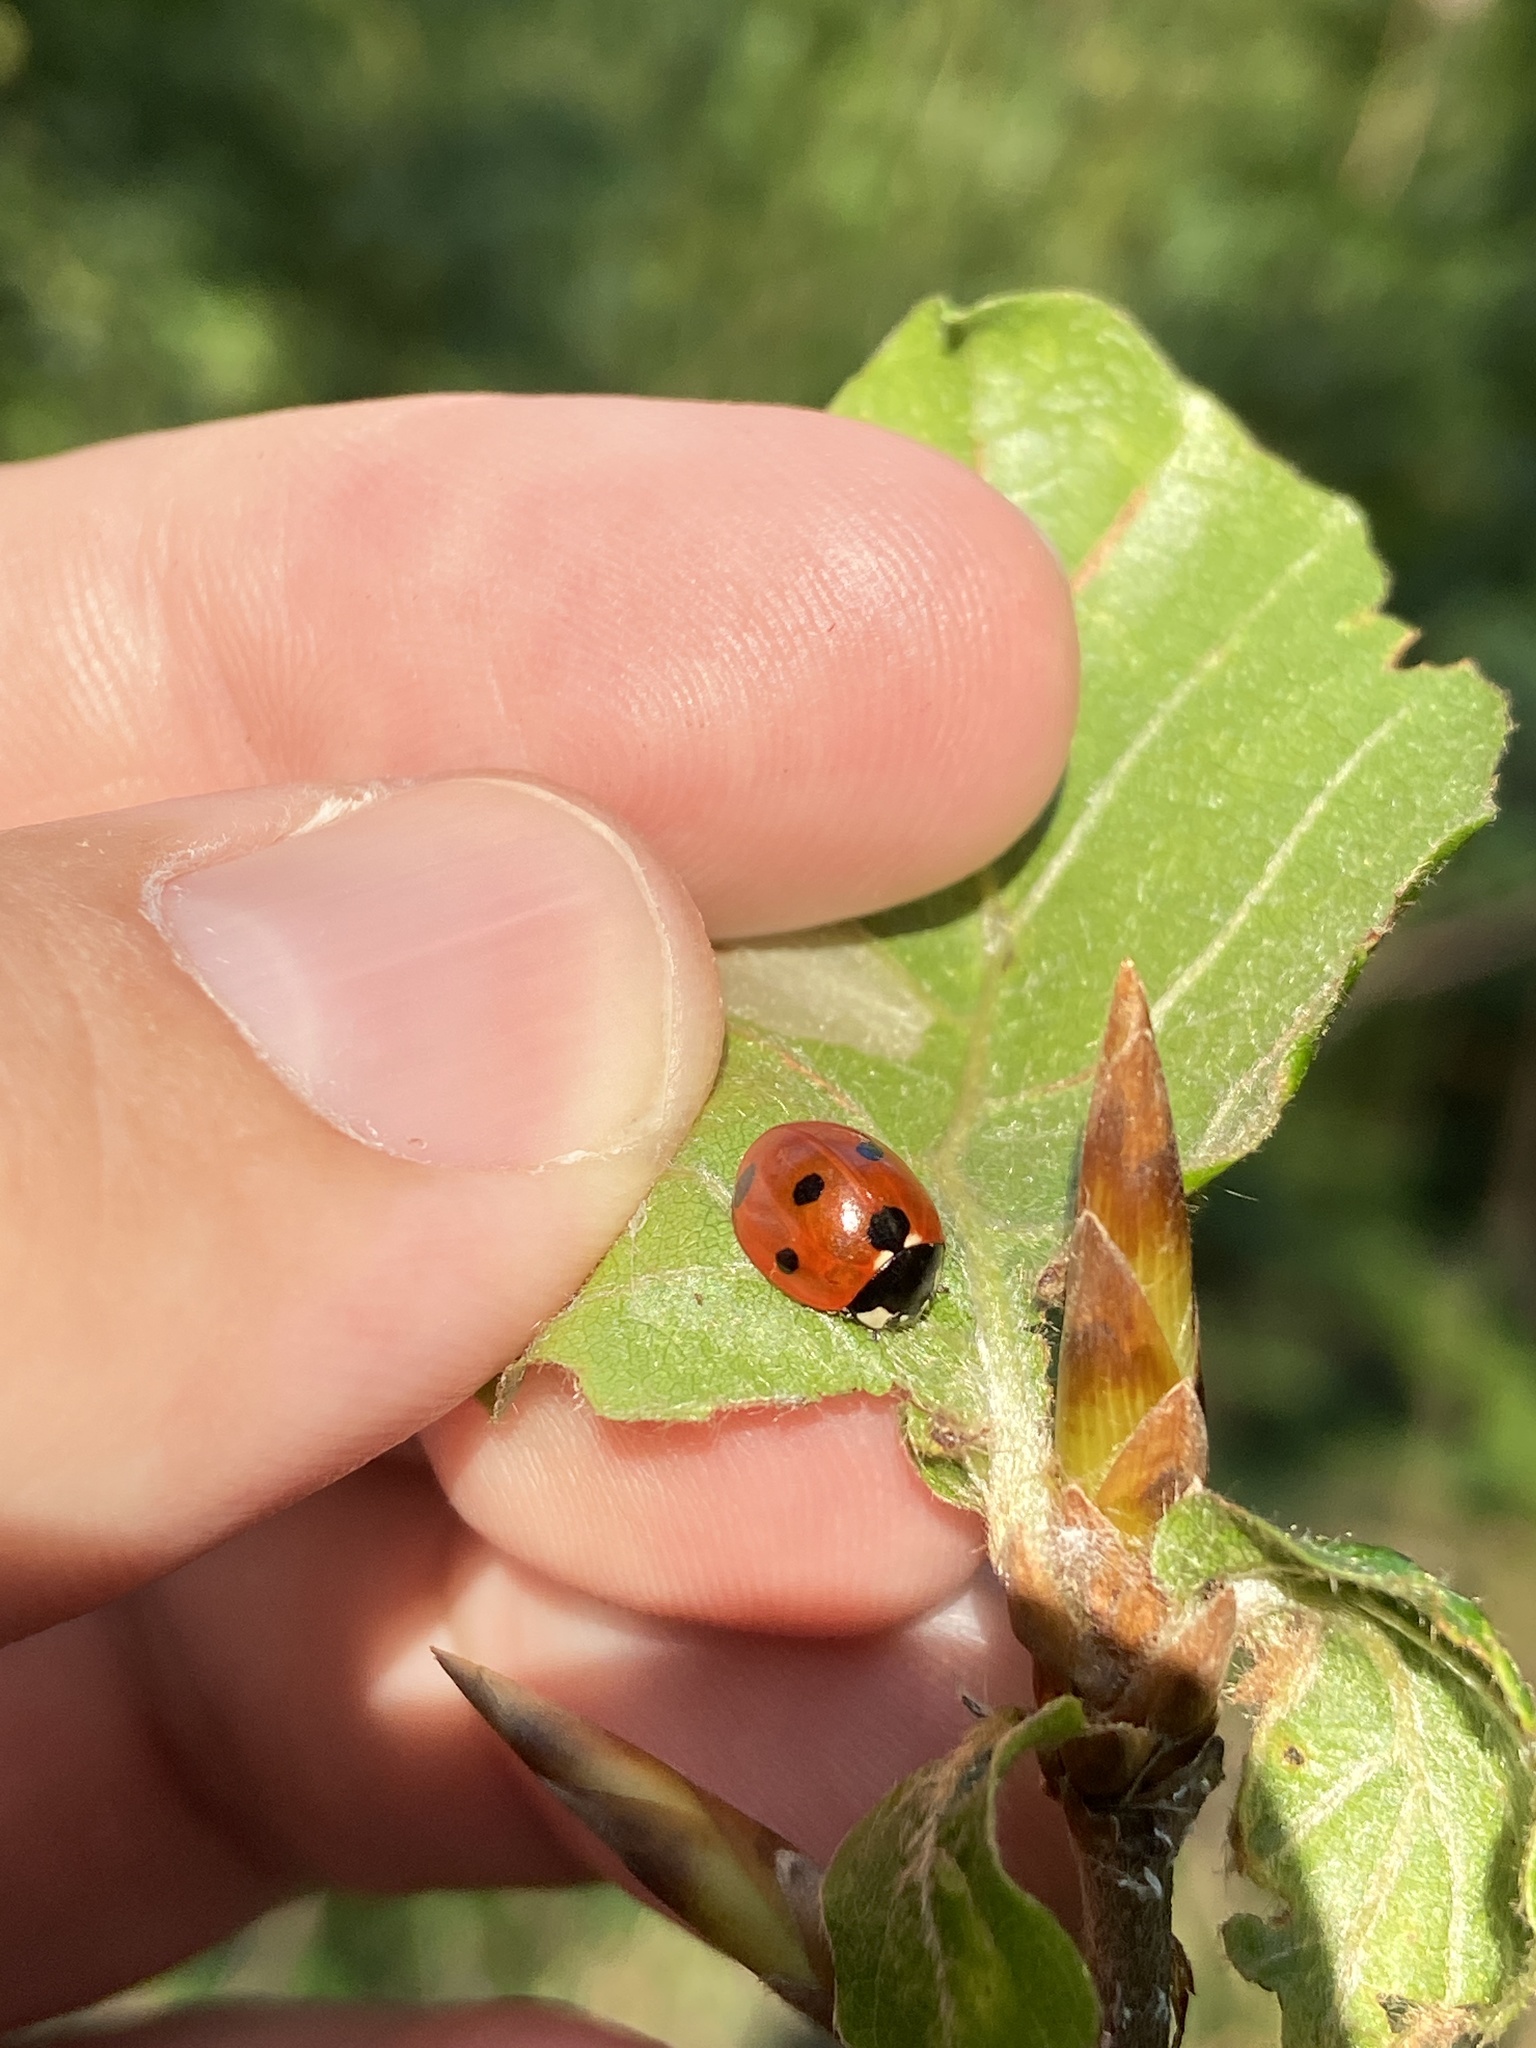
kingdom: Animalia
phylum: Arthropoda
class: Insecta
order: Coleoptera
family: Coccinellidae
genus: Coccinella
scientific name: Coccinella septempunctata
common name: Sevenspotted lady beetle
